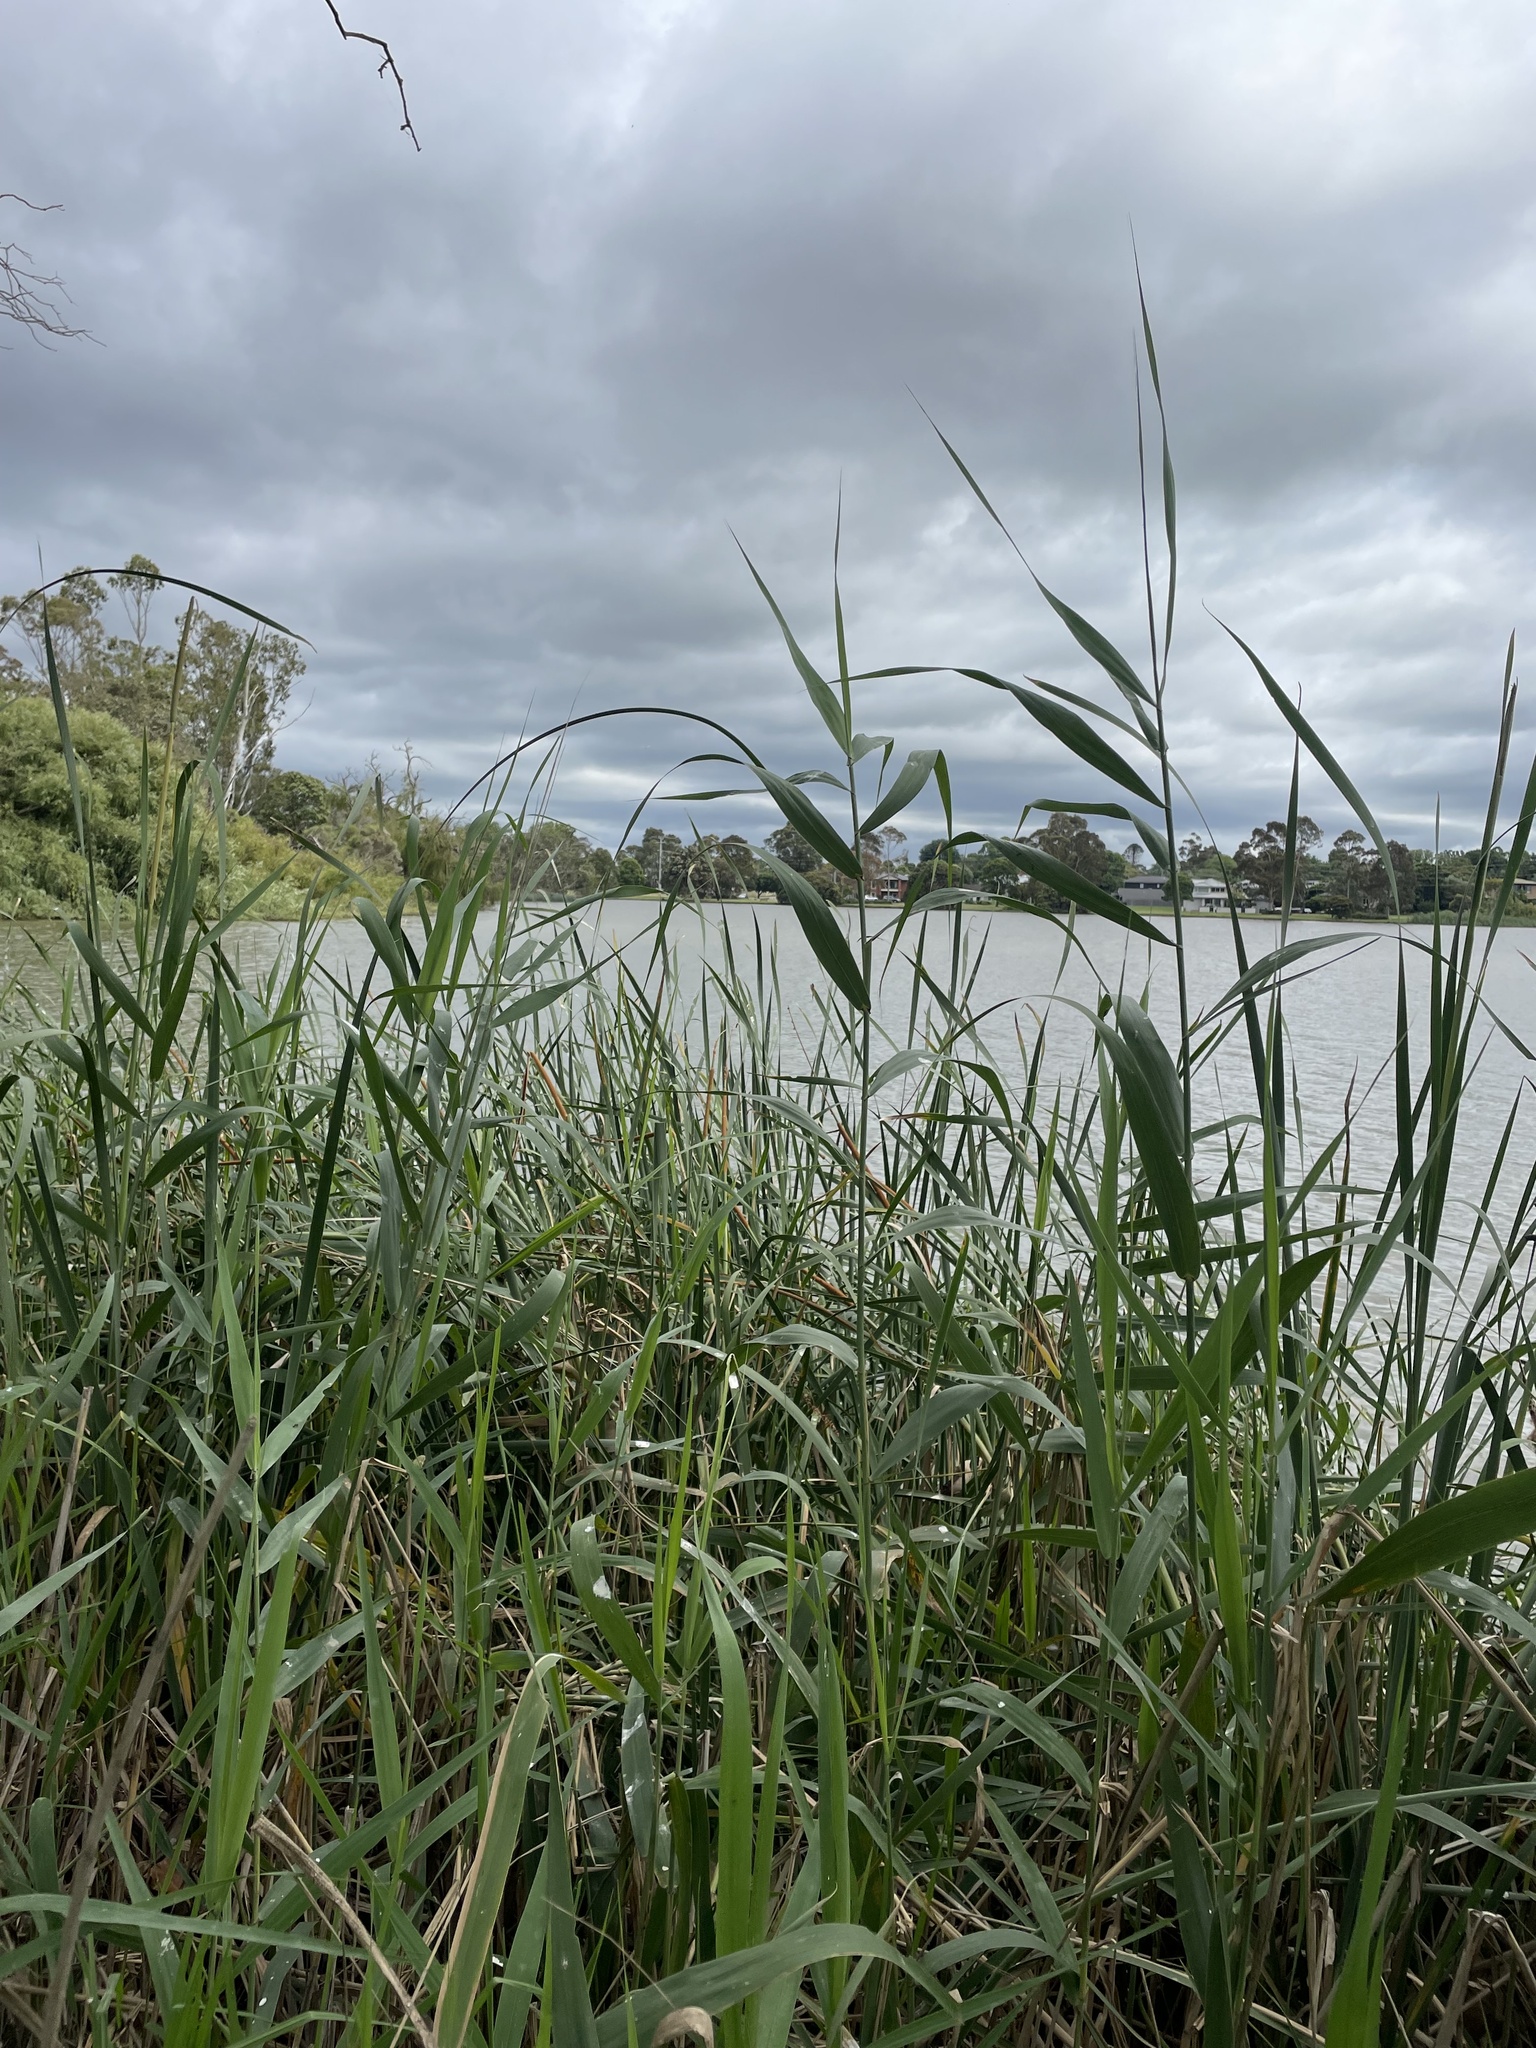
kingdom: Plantae
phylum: Tracheophyta
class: Liliopsida
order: Poales
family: Poaceae
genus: Phragmites
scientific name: Phragmites australis
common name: Common reed
